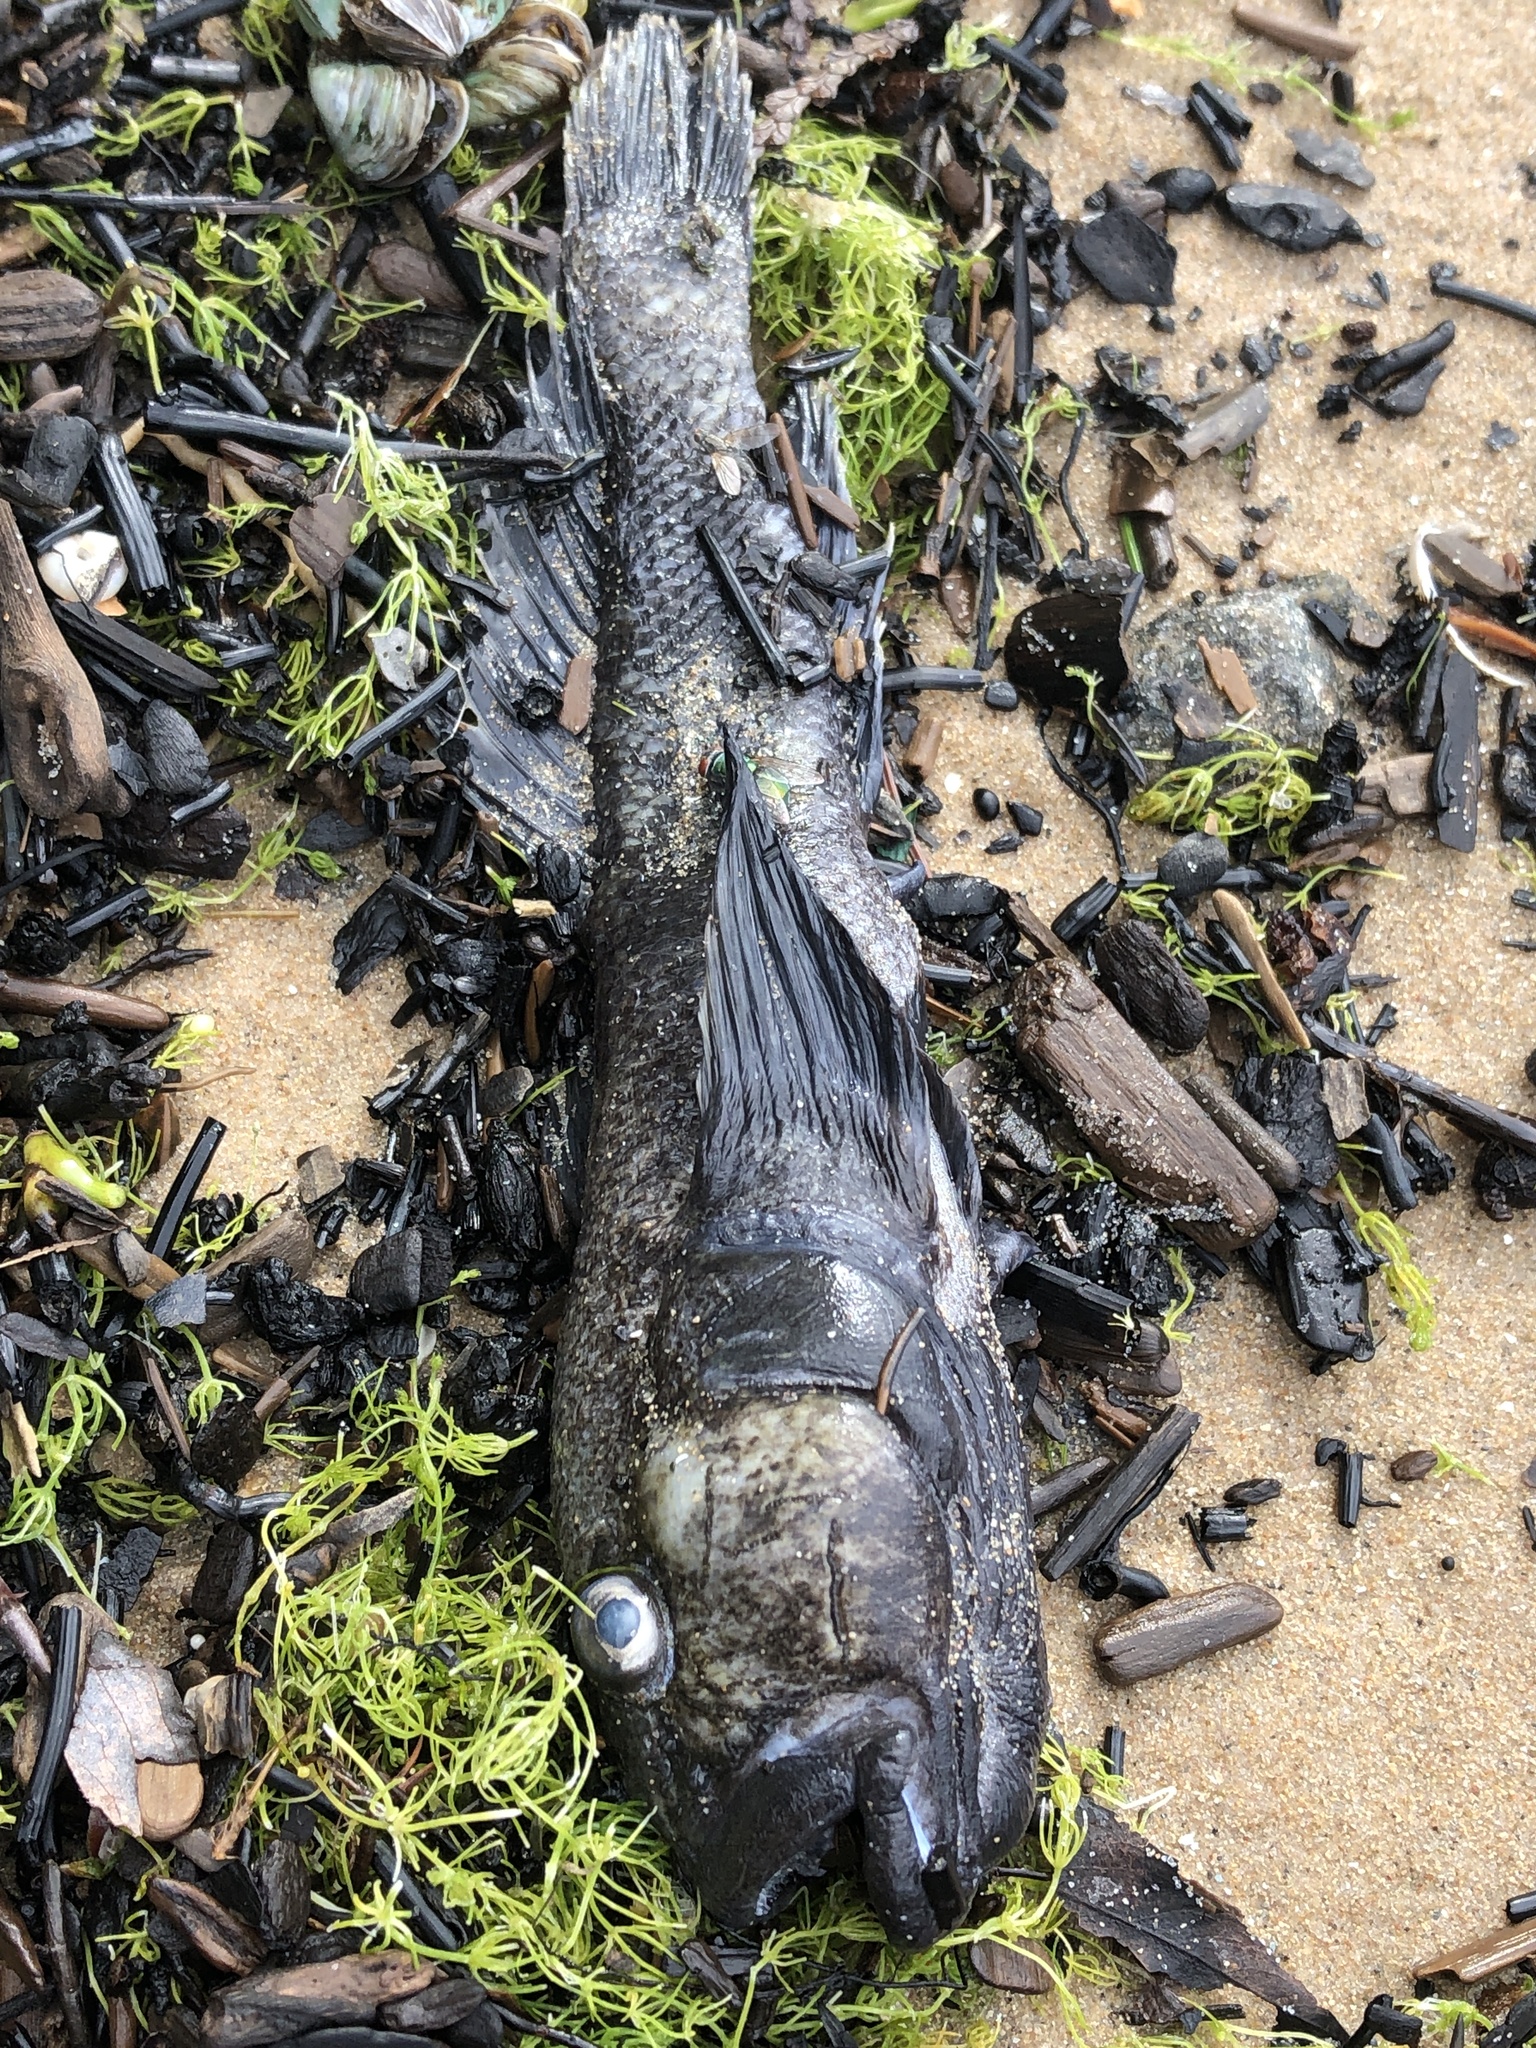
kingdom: Animalia
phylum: Chordata
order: Perciformes
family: Gobiidae
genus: Neogobius
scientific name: Neogobius melanostomus
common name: Round goby
